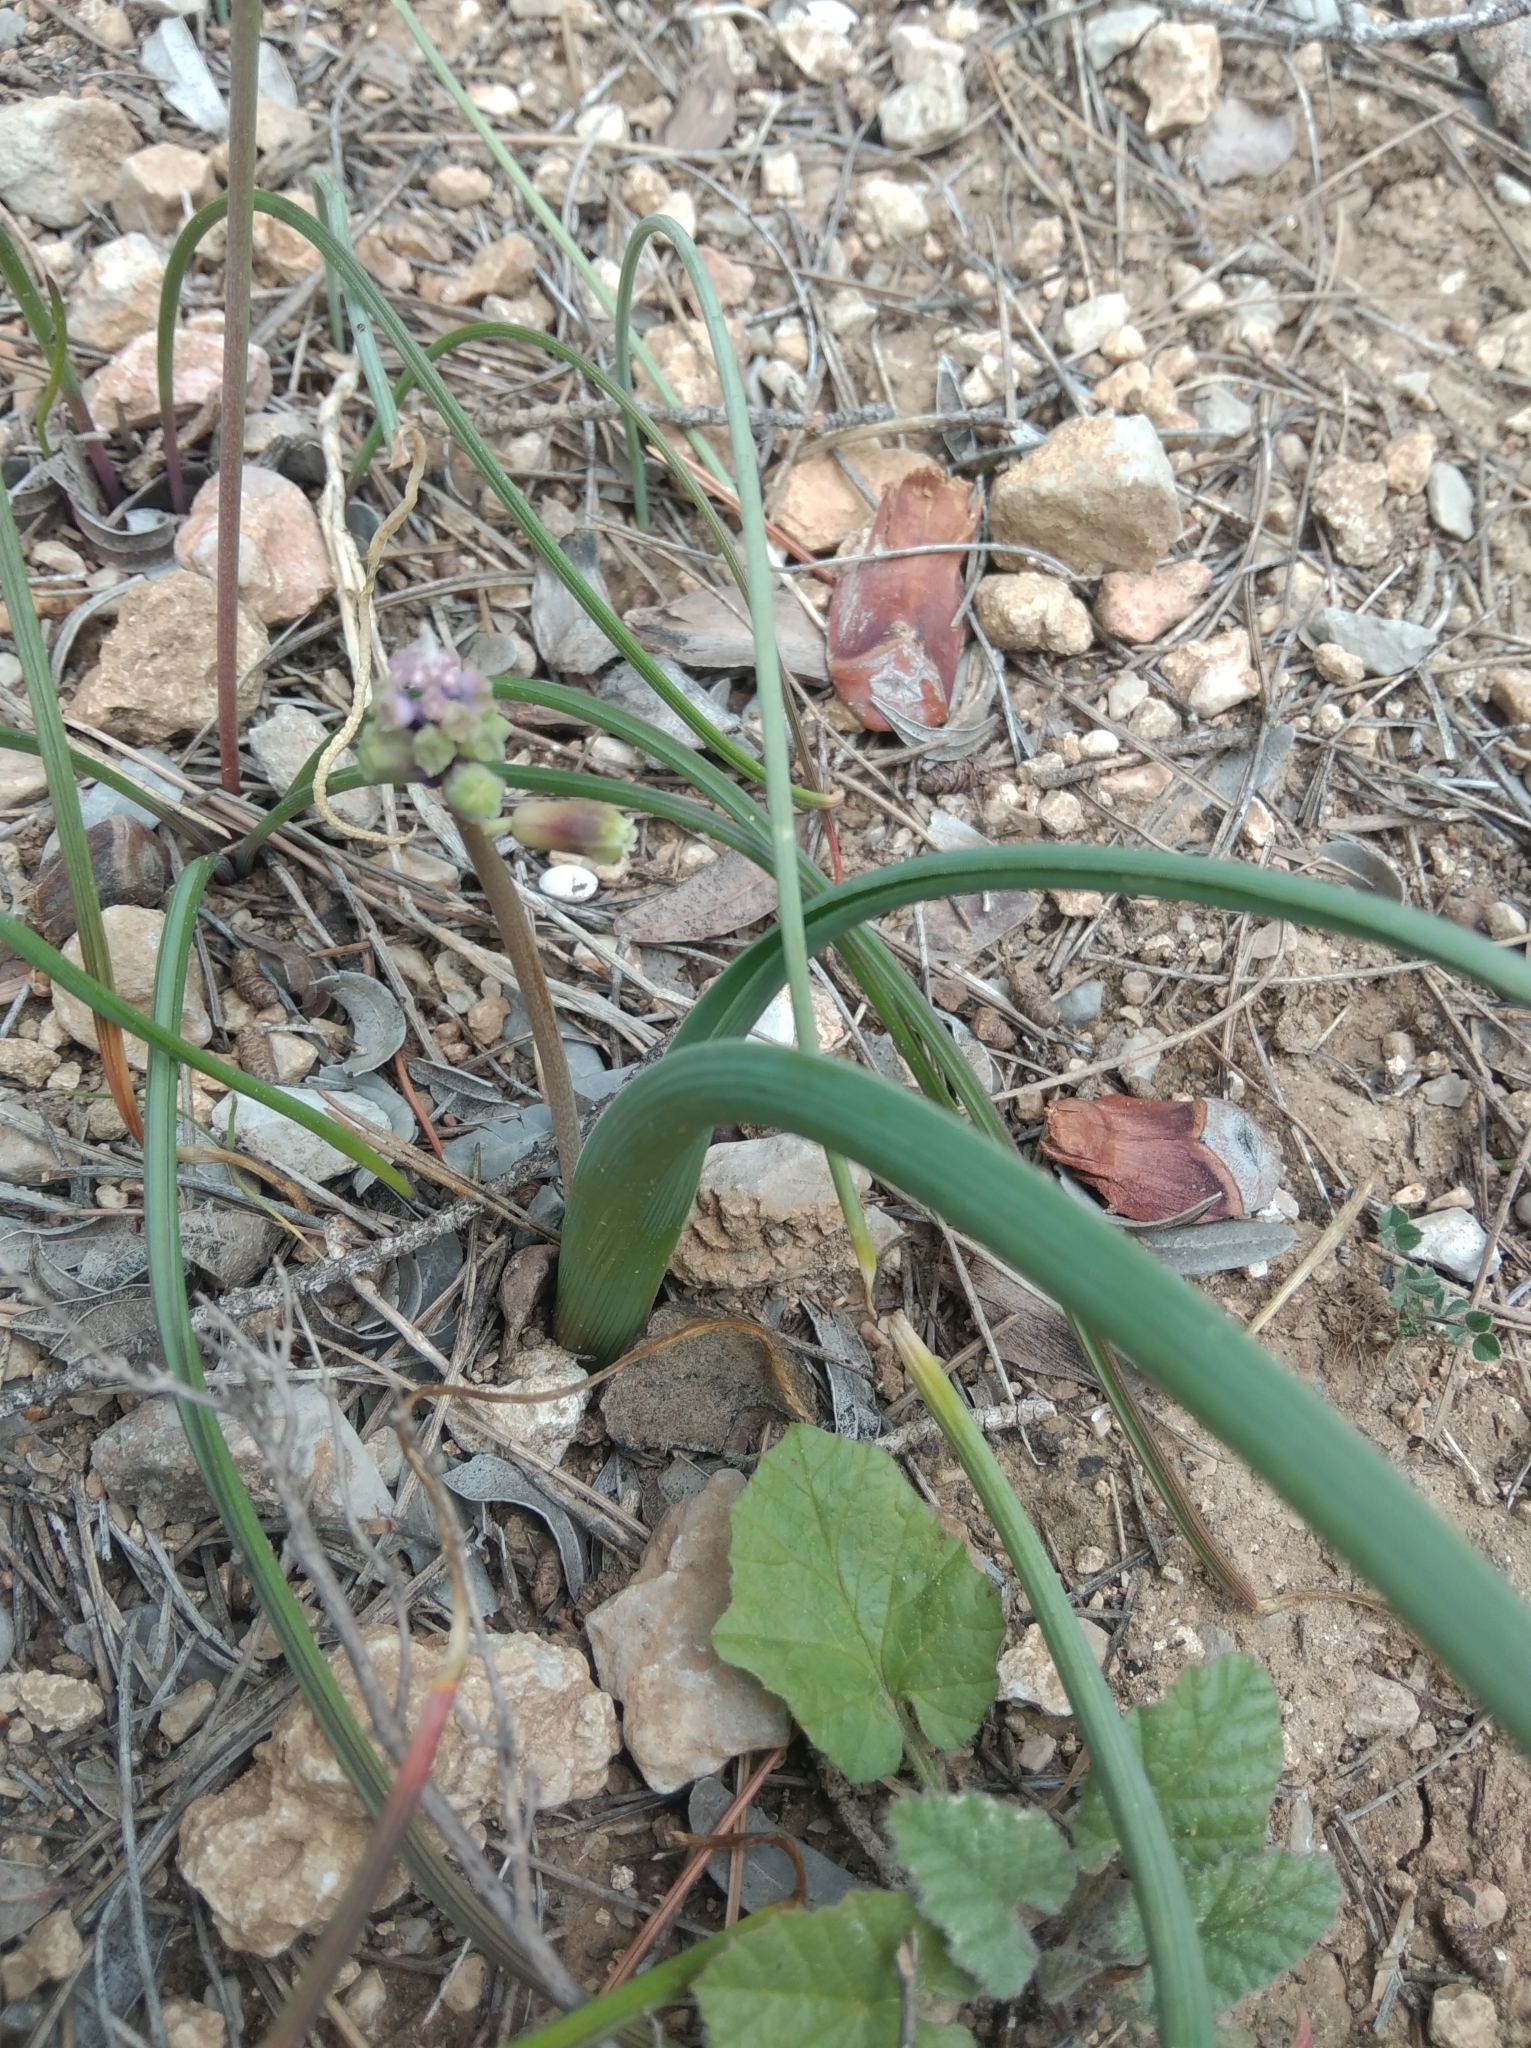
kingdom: Plantae
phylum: Tracheophyta
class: Liliopsida
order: Asparagales
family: Asparagaceae
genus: Muscari
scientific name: Muscari comosum
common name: Tassel hyacinth
